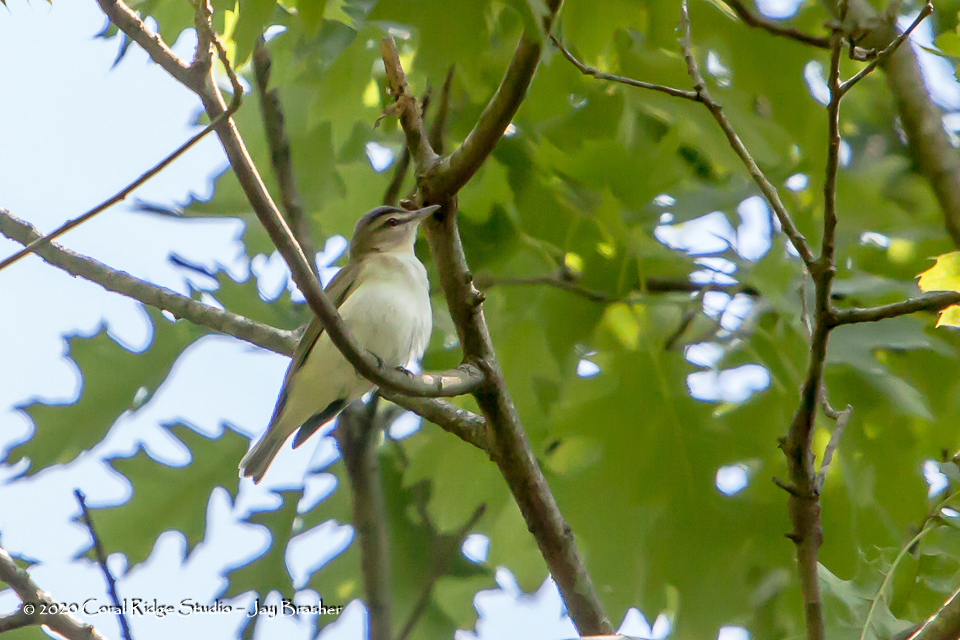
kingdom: Animalia
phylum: Chordata
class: Aves
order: Passeriformes
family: Vireonidae
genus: Vireo
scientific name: Vireo olivaceus
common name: Red-eyed vireo
